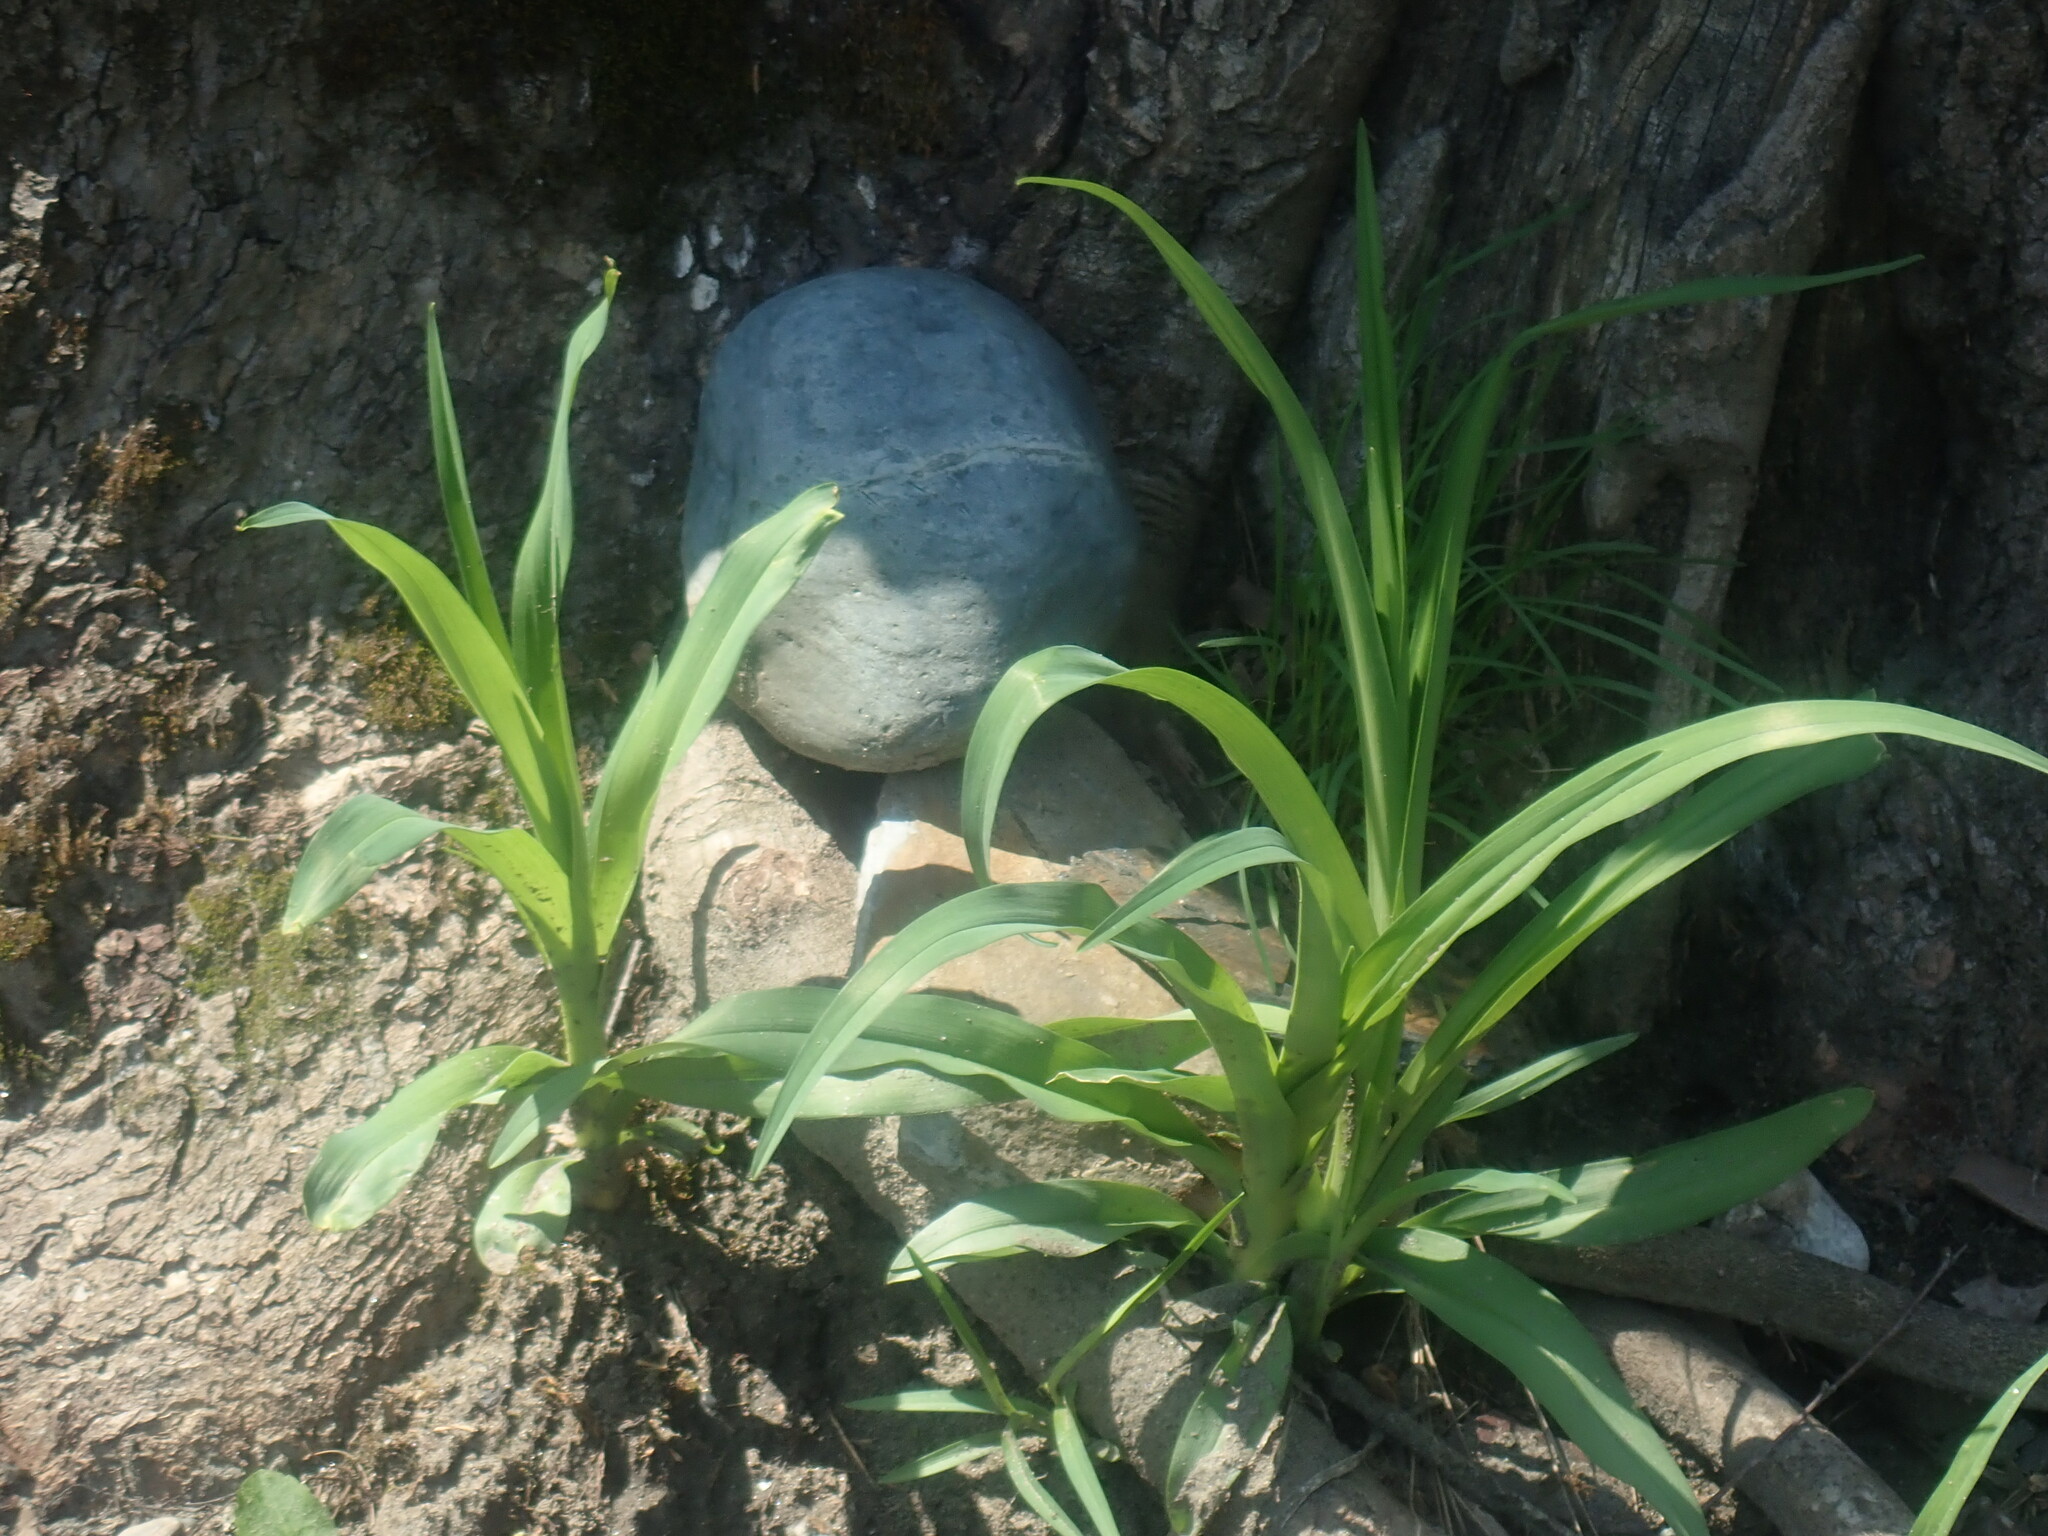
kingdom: Plantae
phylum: Tracheophyta
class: Liliopsida
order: Asparagales
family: Asphodelaceae
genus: Hemerocallis
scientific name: Hemerocallis
